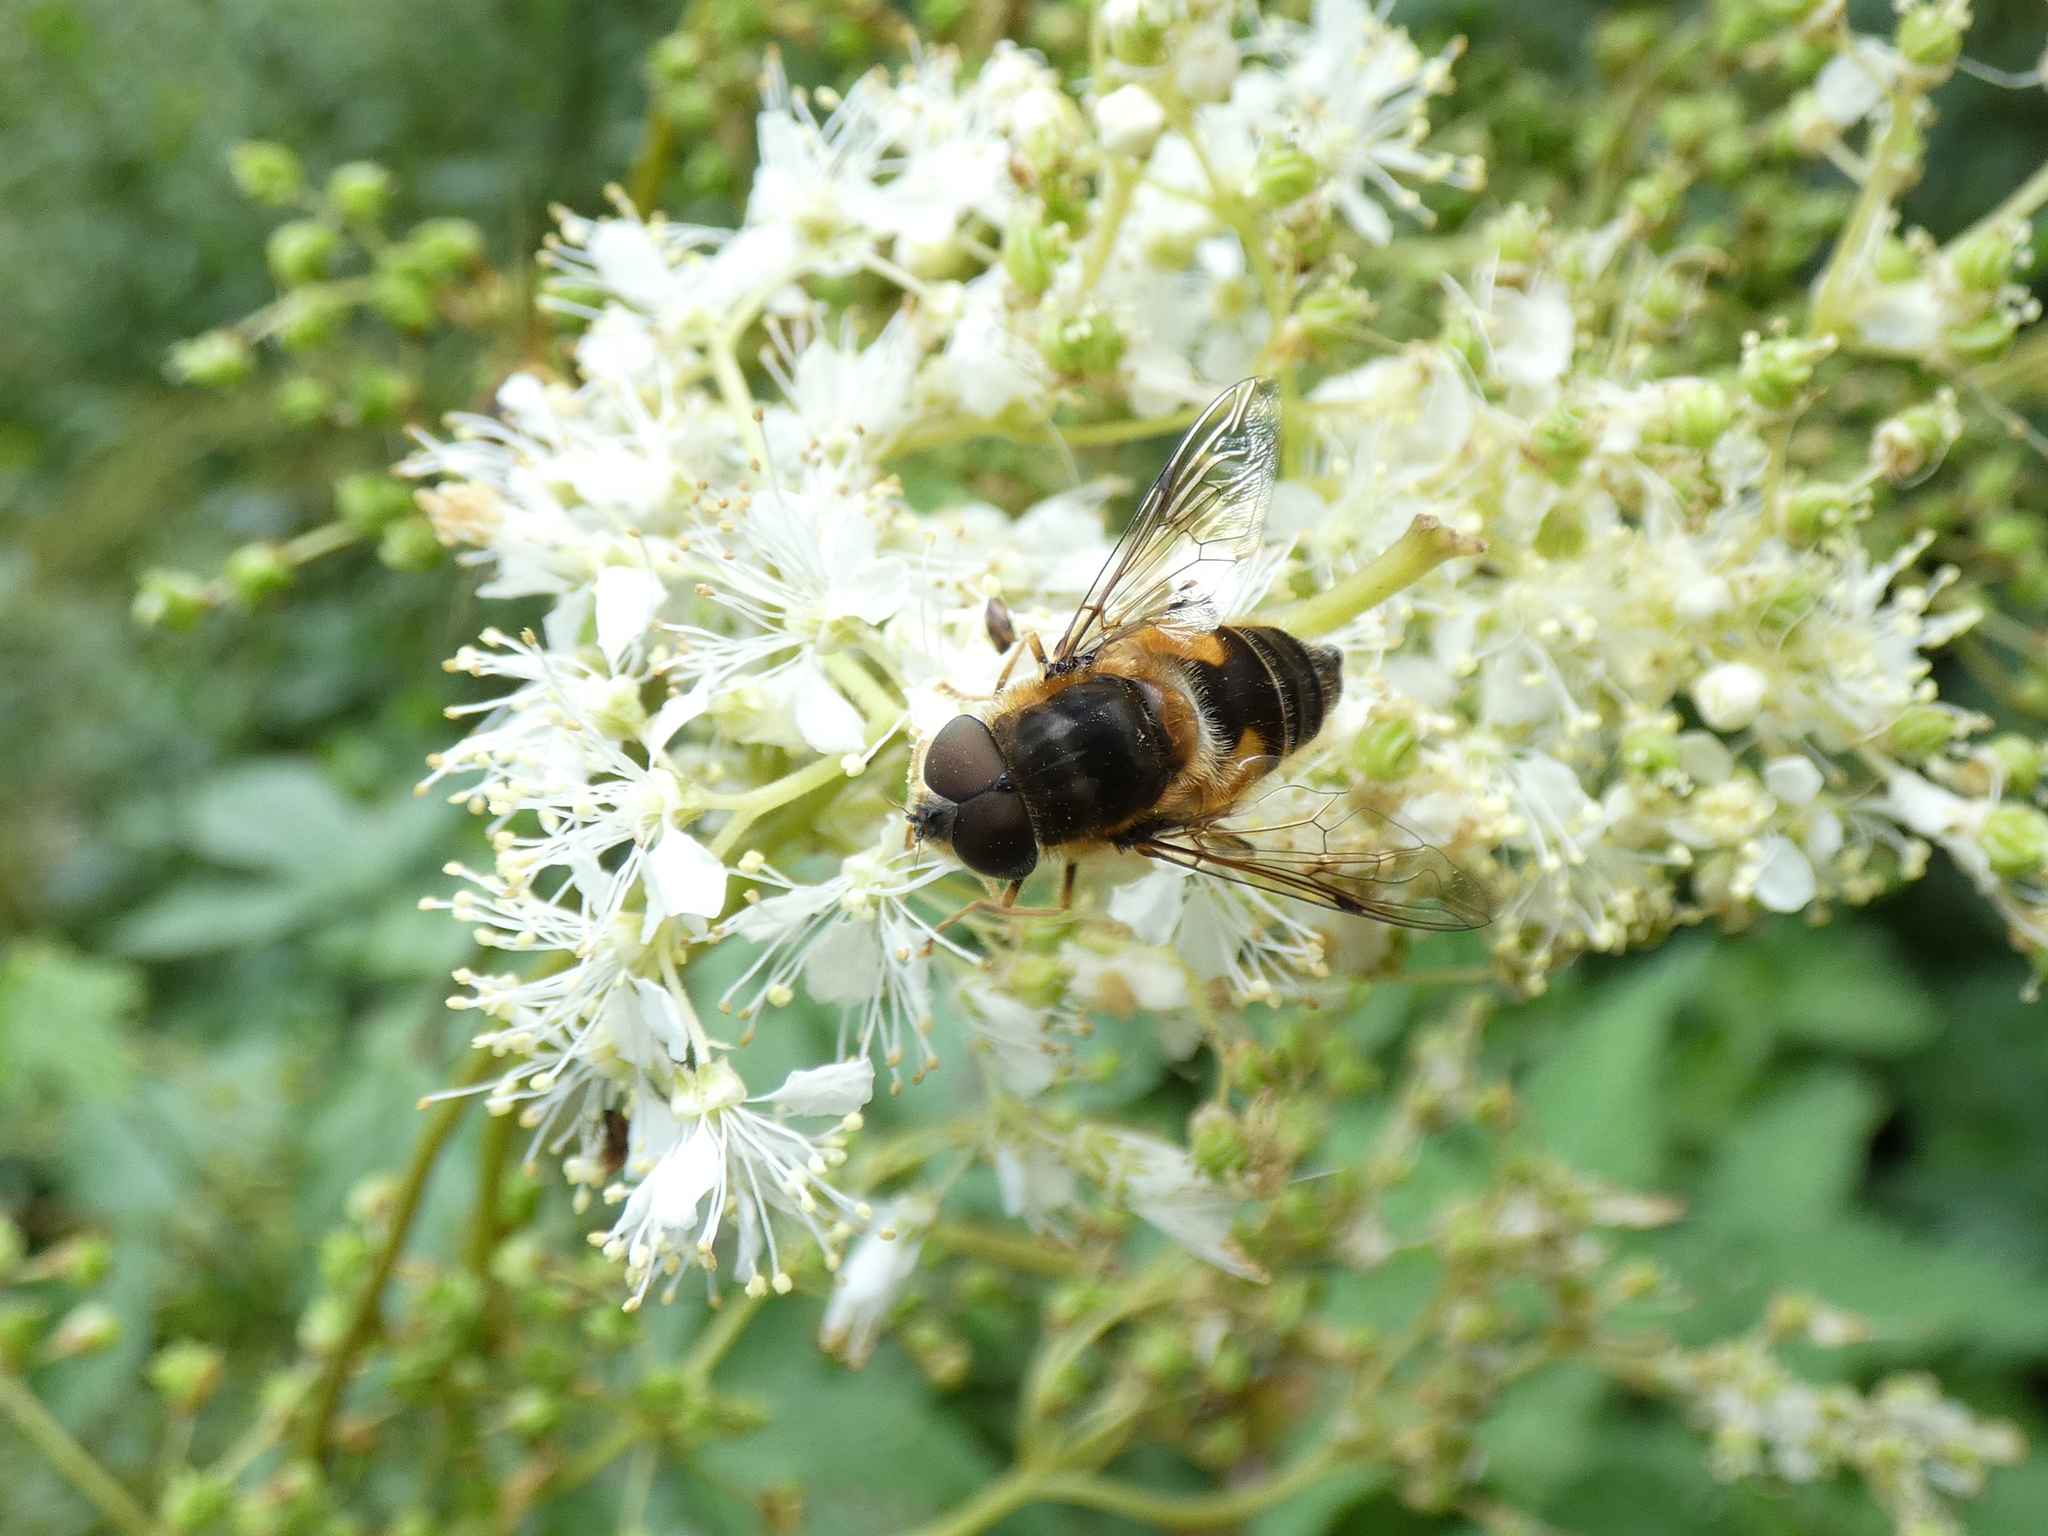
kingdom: Animalia
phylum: Arthropoda
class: Insecta
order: Diptera
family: Syrphidae
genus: Eristalis
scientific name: Eristalis pertinax
